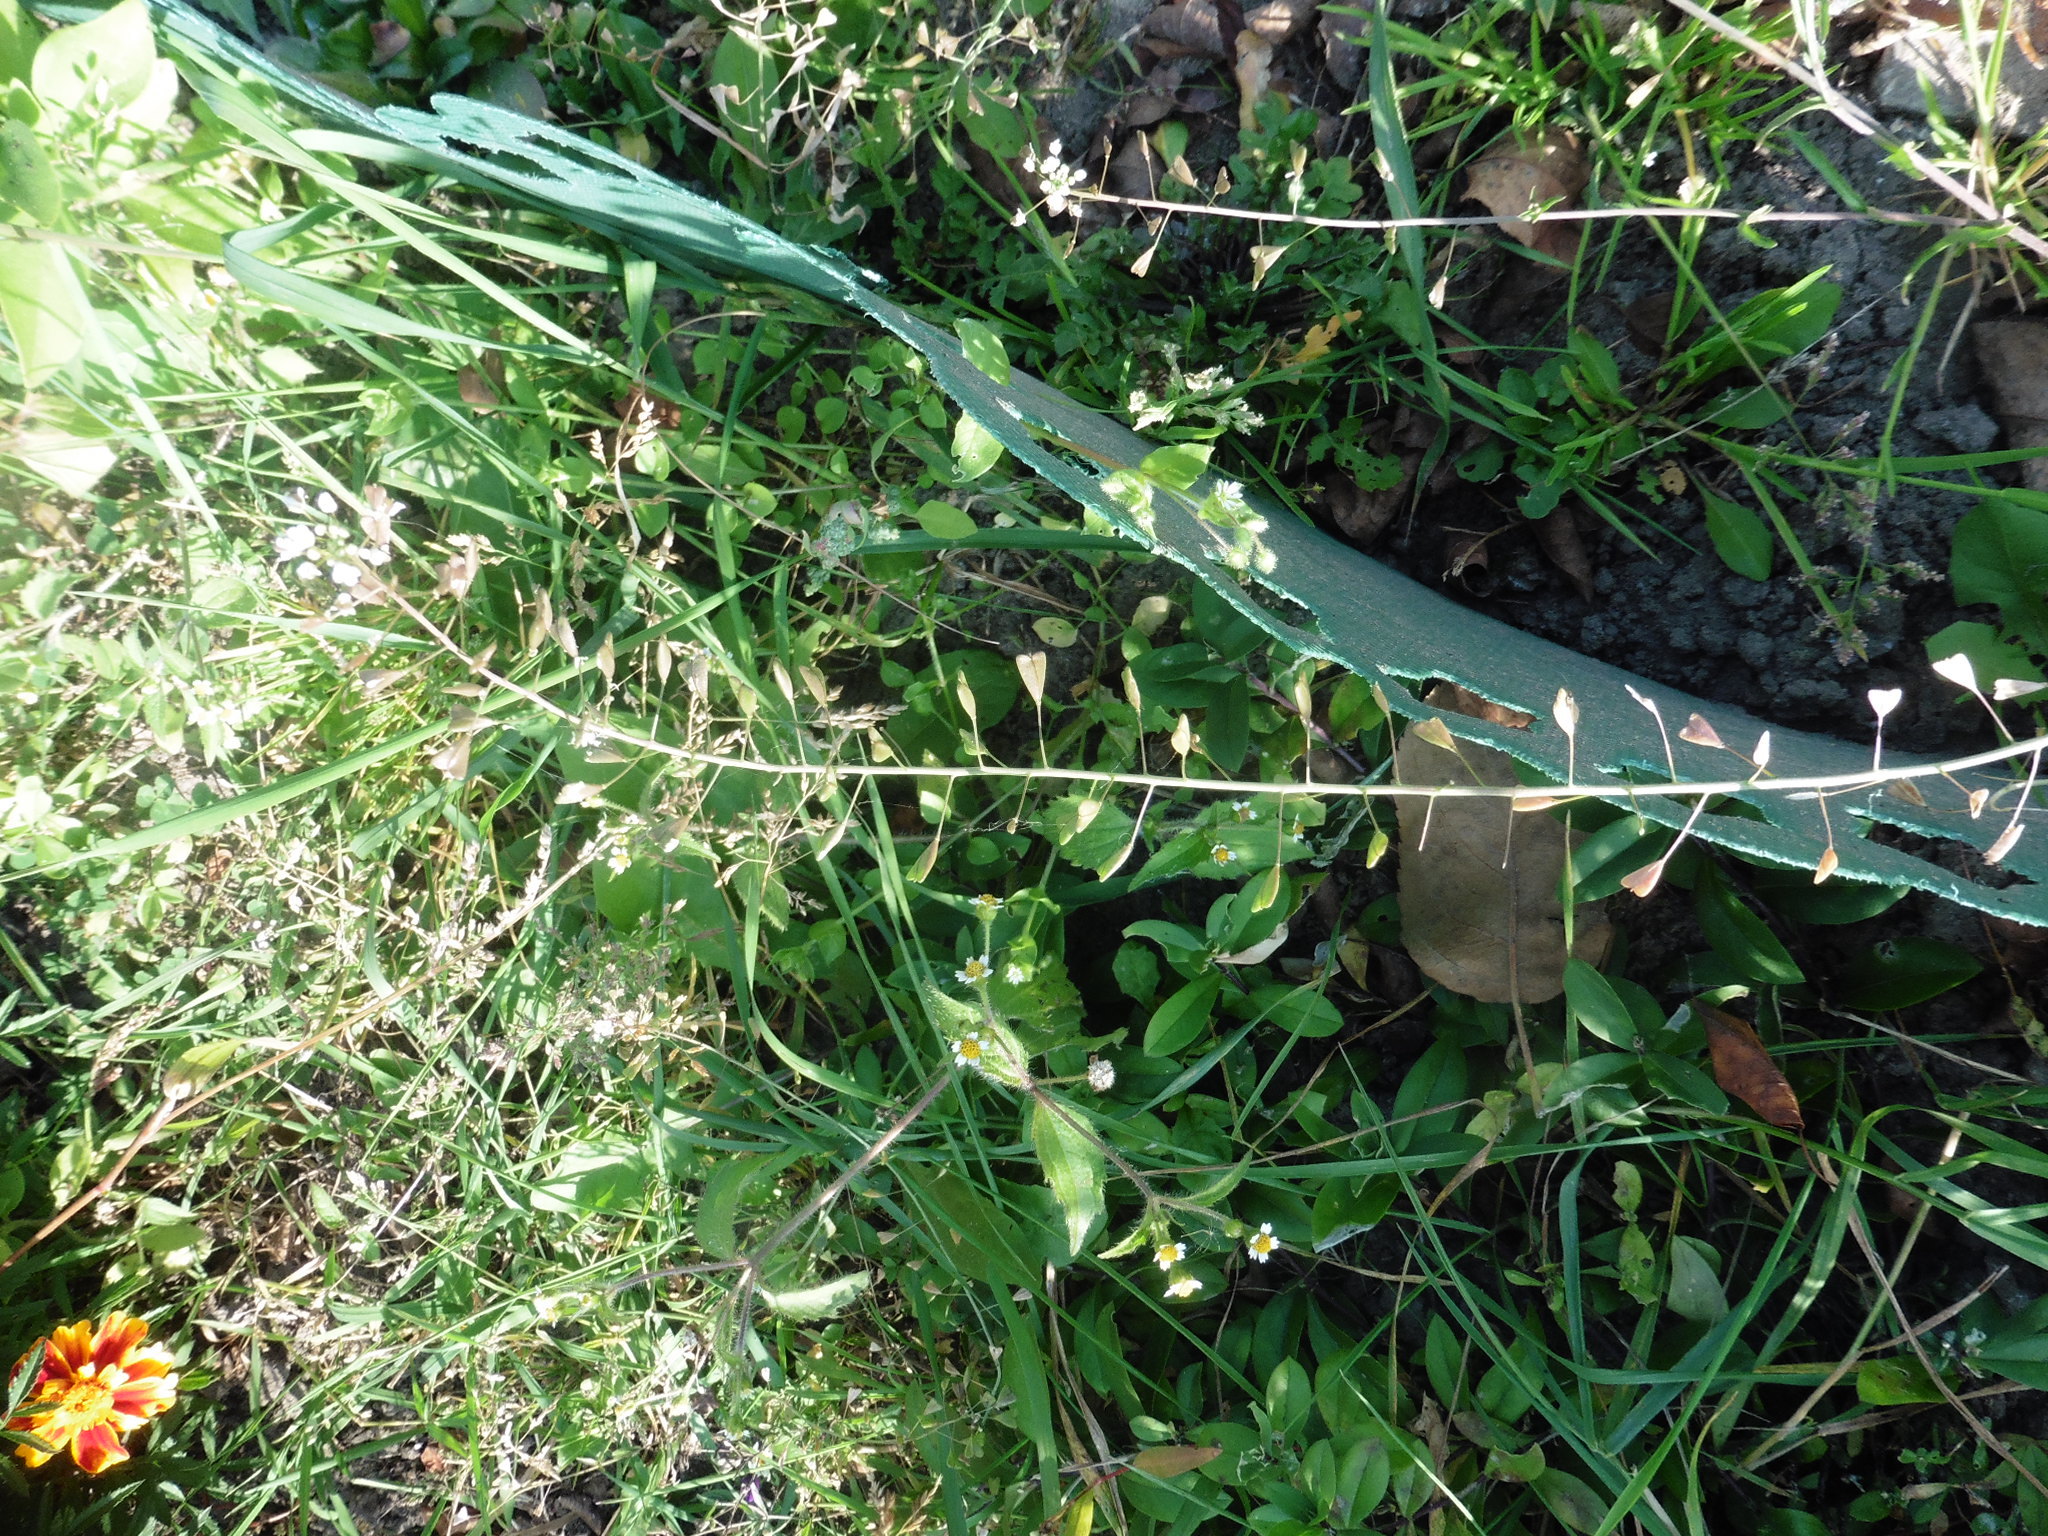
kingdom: Plantae
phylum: Tracheophyta
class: Magnoliopsida
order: Brassicales
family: Brassicaceae
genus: Capsella
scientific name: Capsella bursa-pastoris
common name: Shepherd's purse
